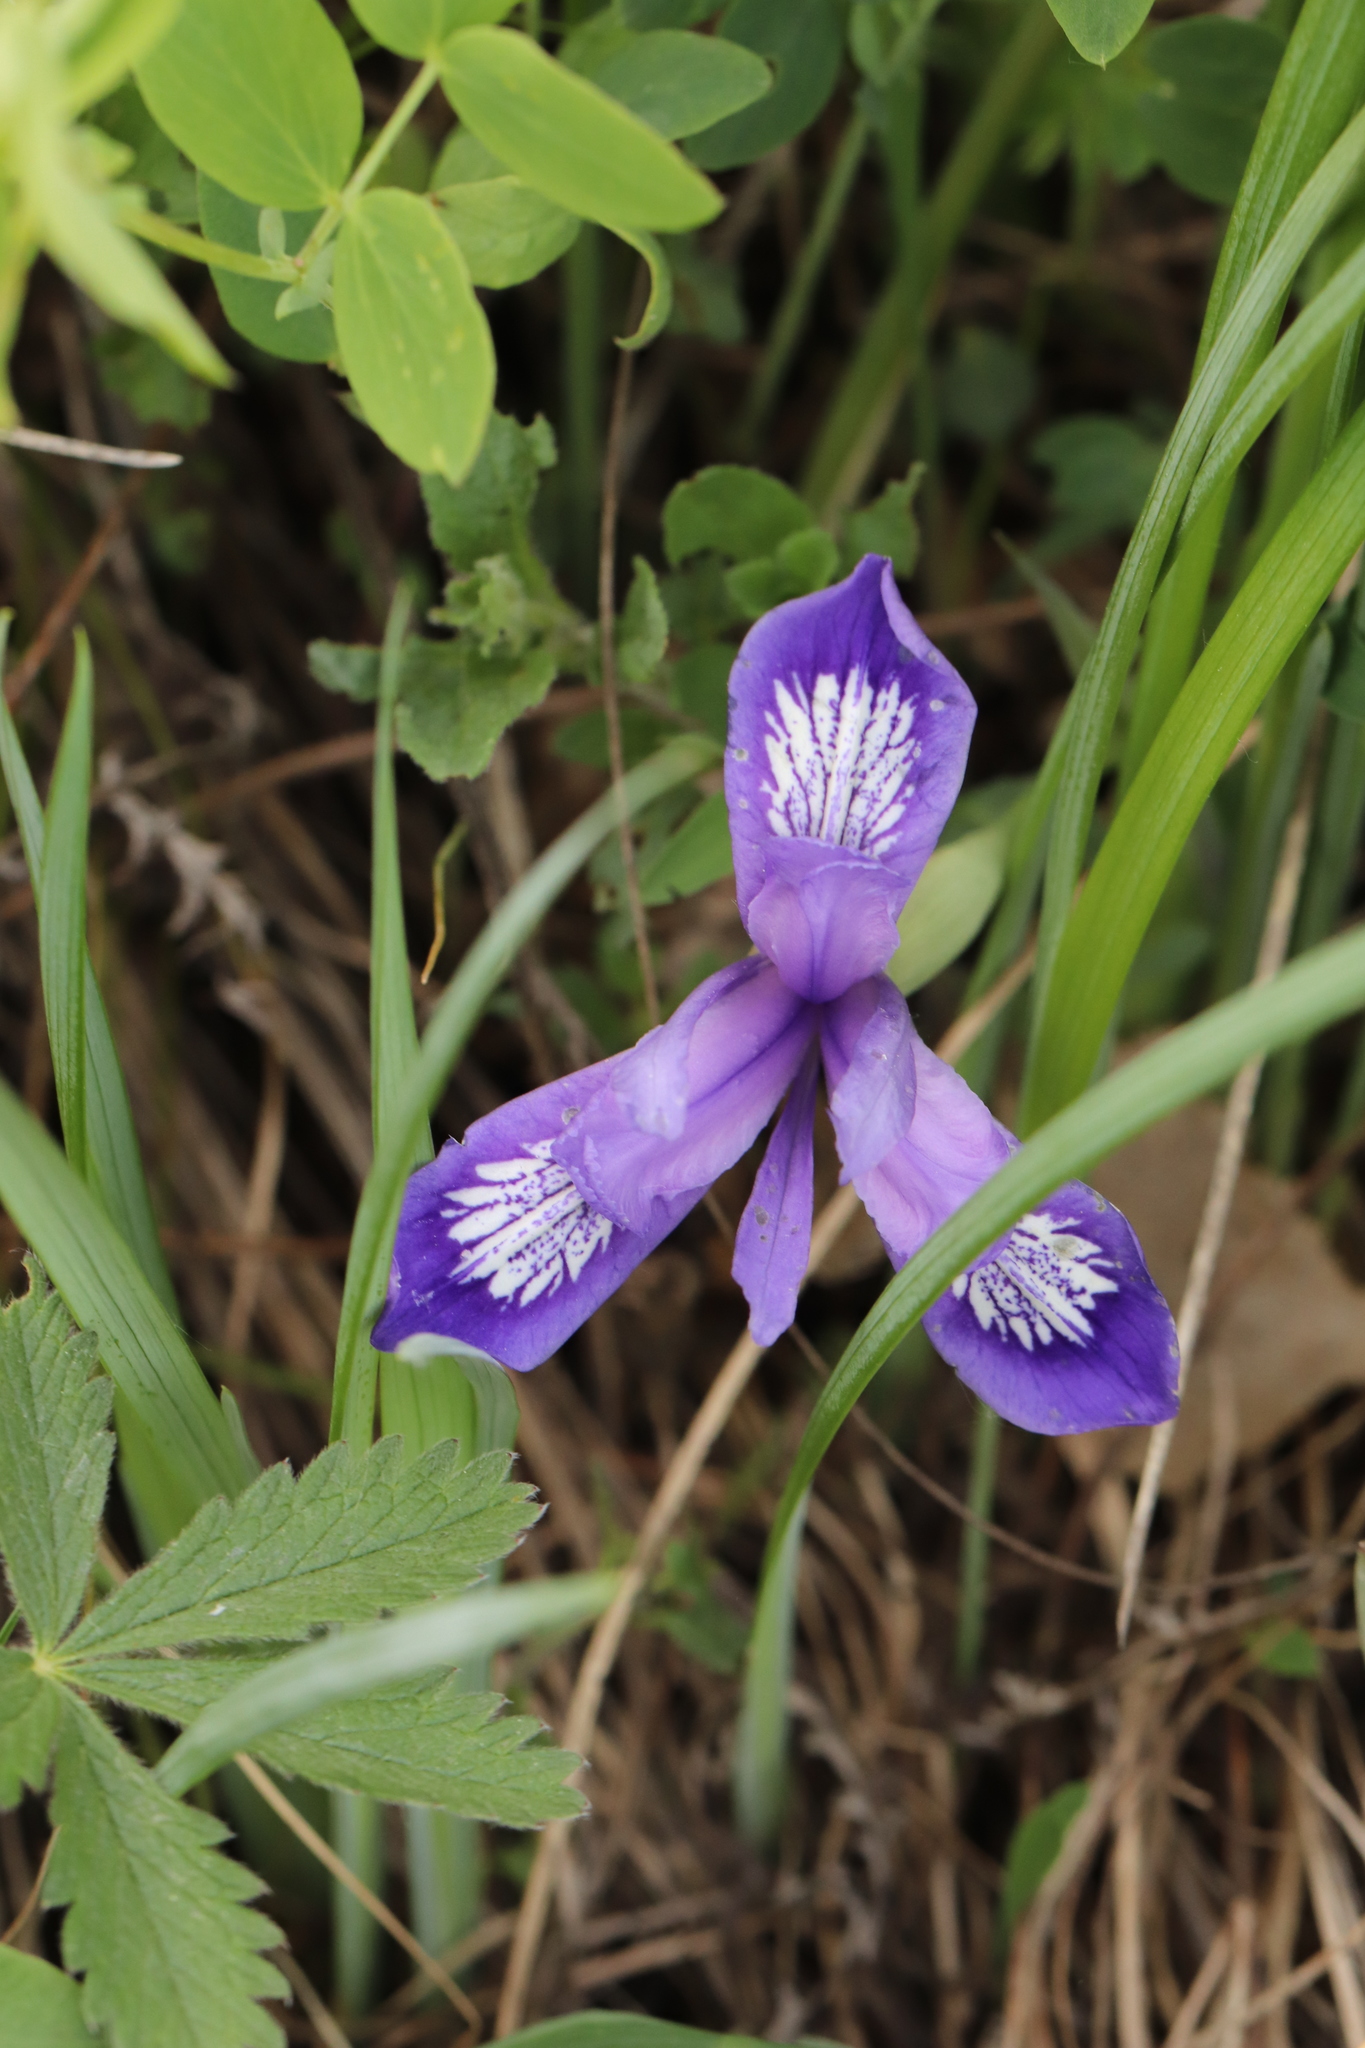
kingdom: Plantae
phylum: Tracheophyta
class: Liliopsida
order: Asparagales
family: Iridaceae
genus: Iris
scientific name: Iris ruthenica
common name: Purple-bract iris
